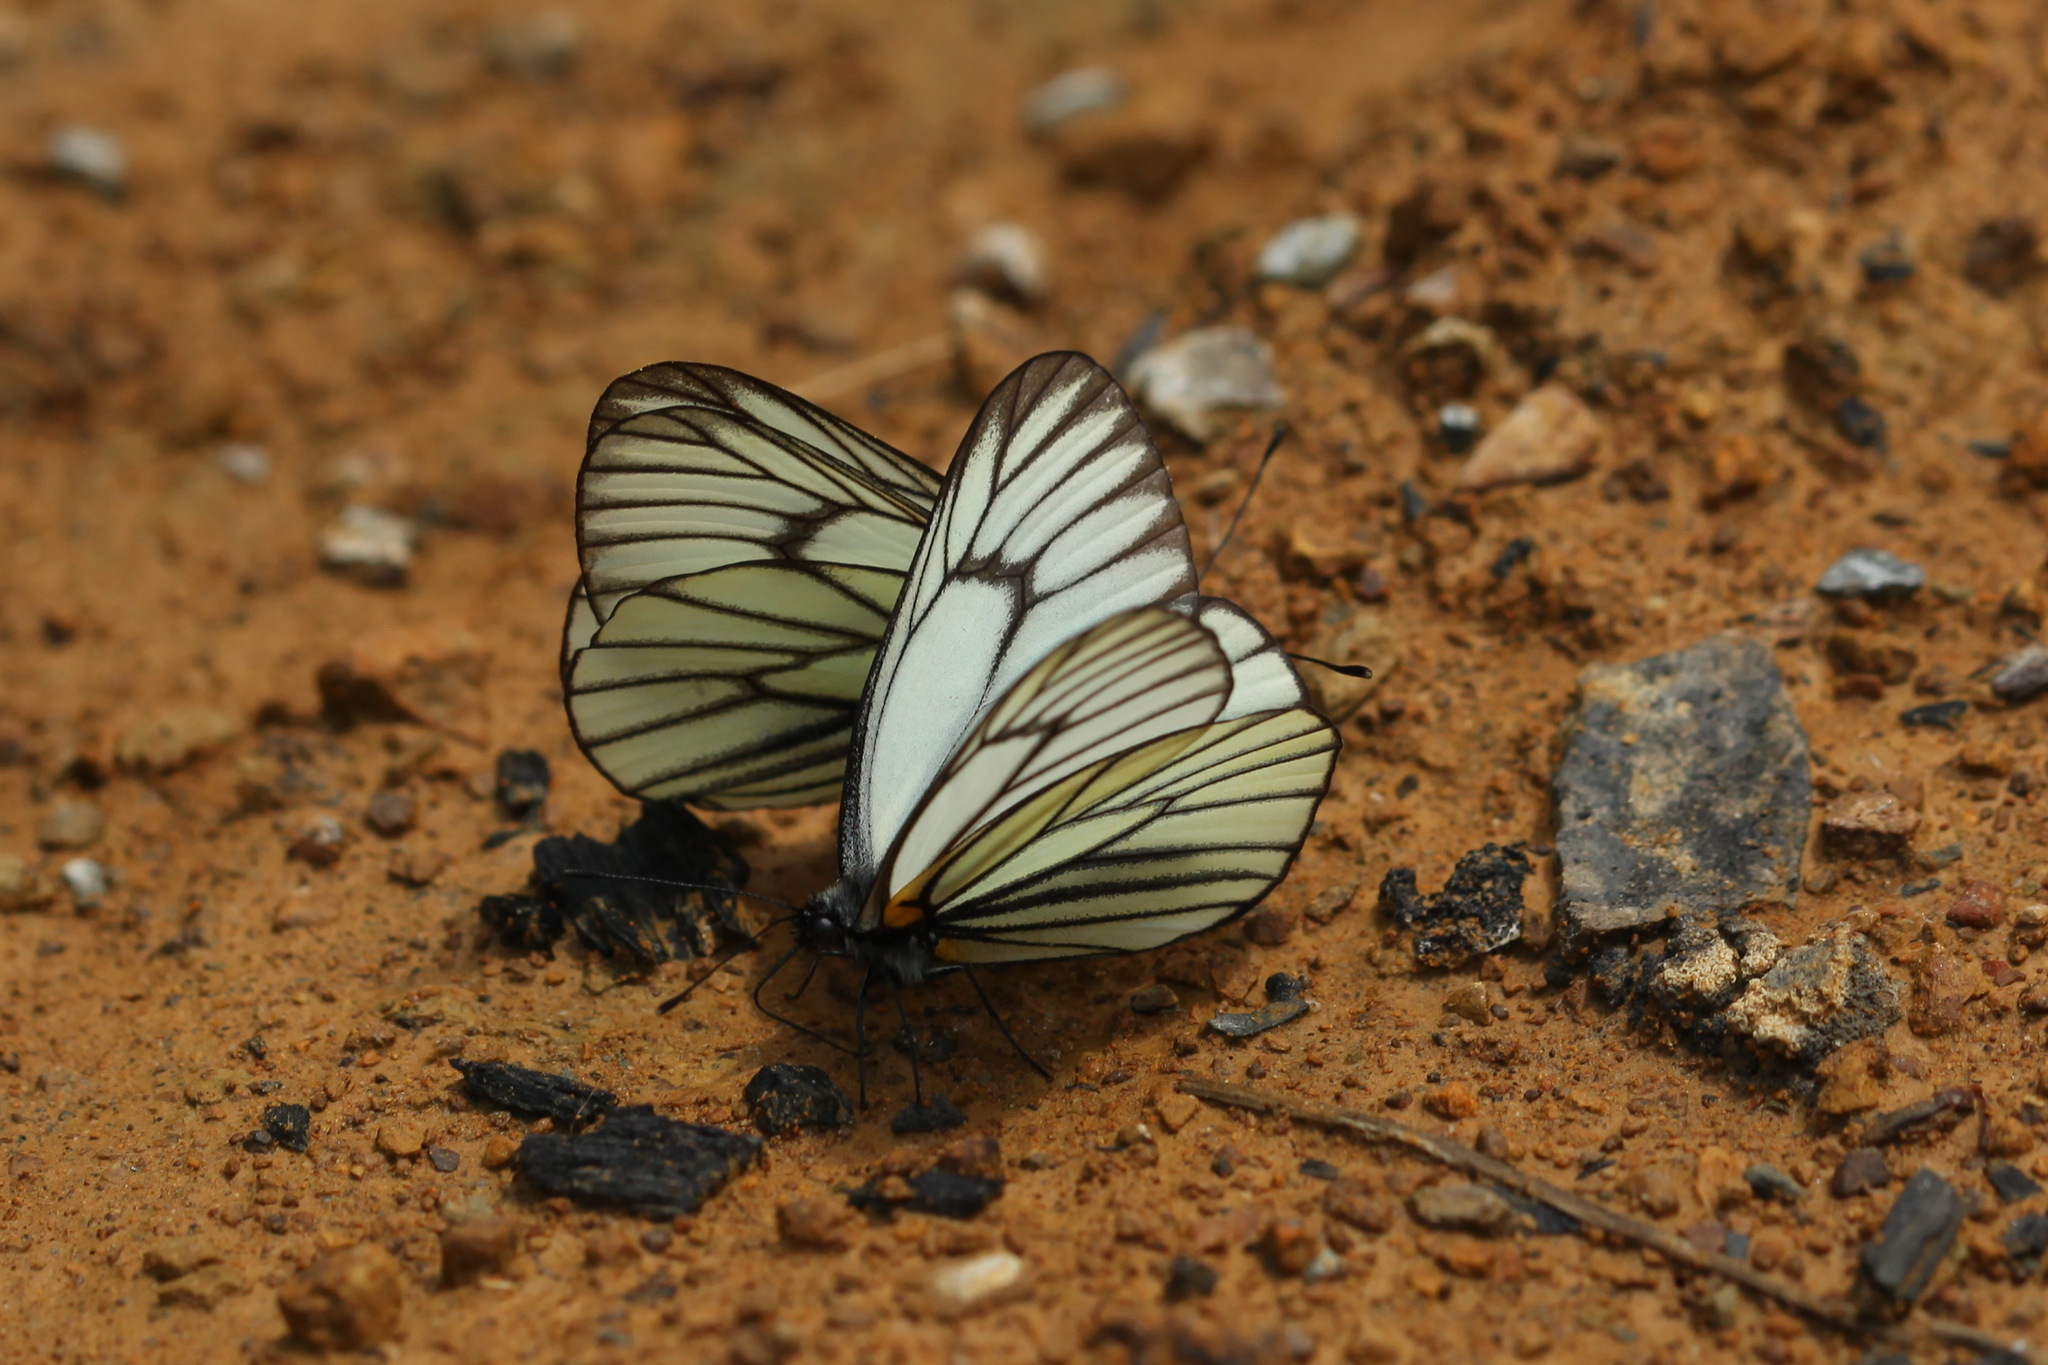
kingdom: Animalia
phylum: Arthropoda
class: Insecta
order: Lepidoptera
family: Pieridae
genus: Aporia
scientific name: Aporia hippia
